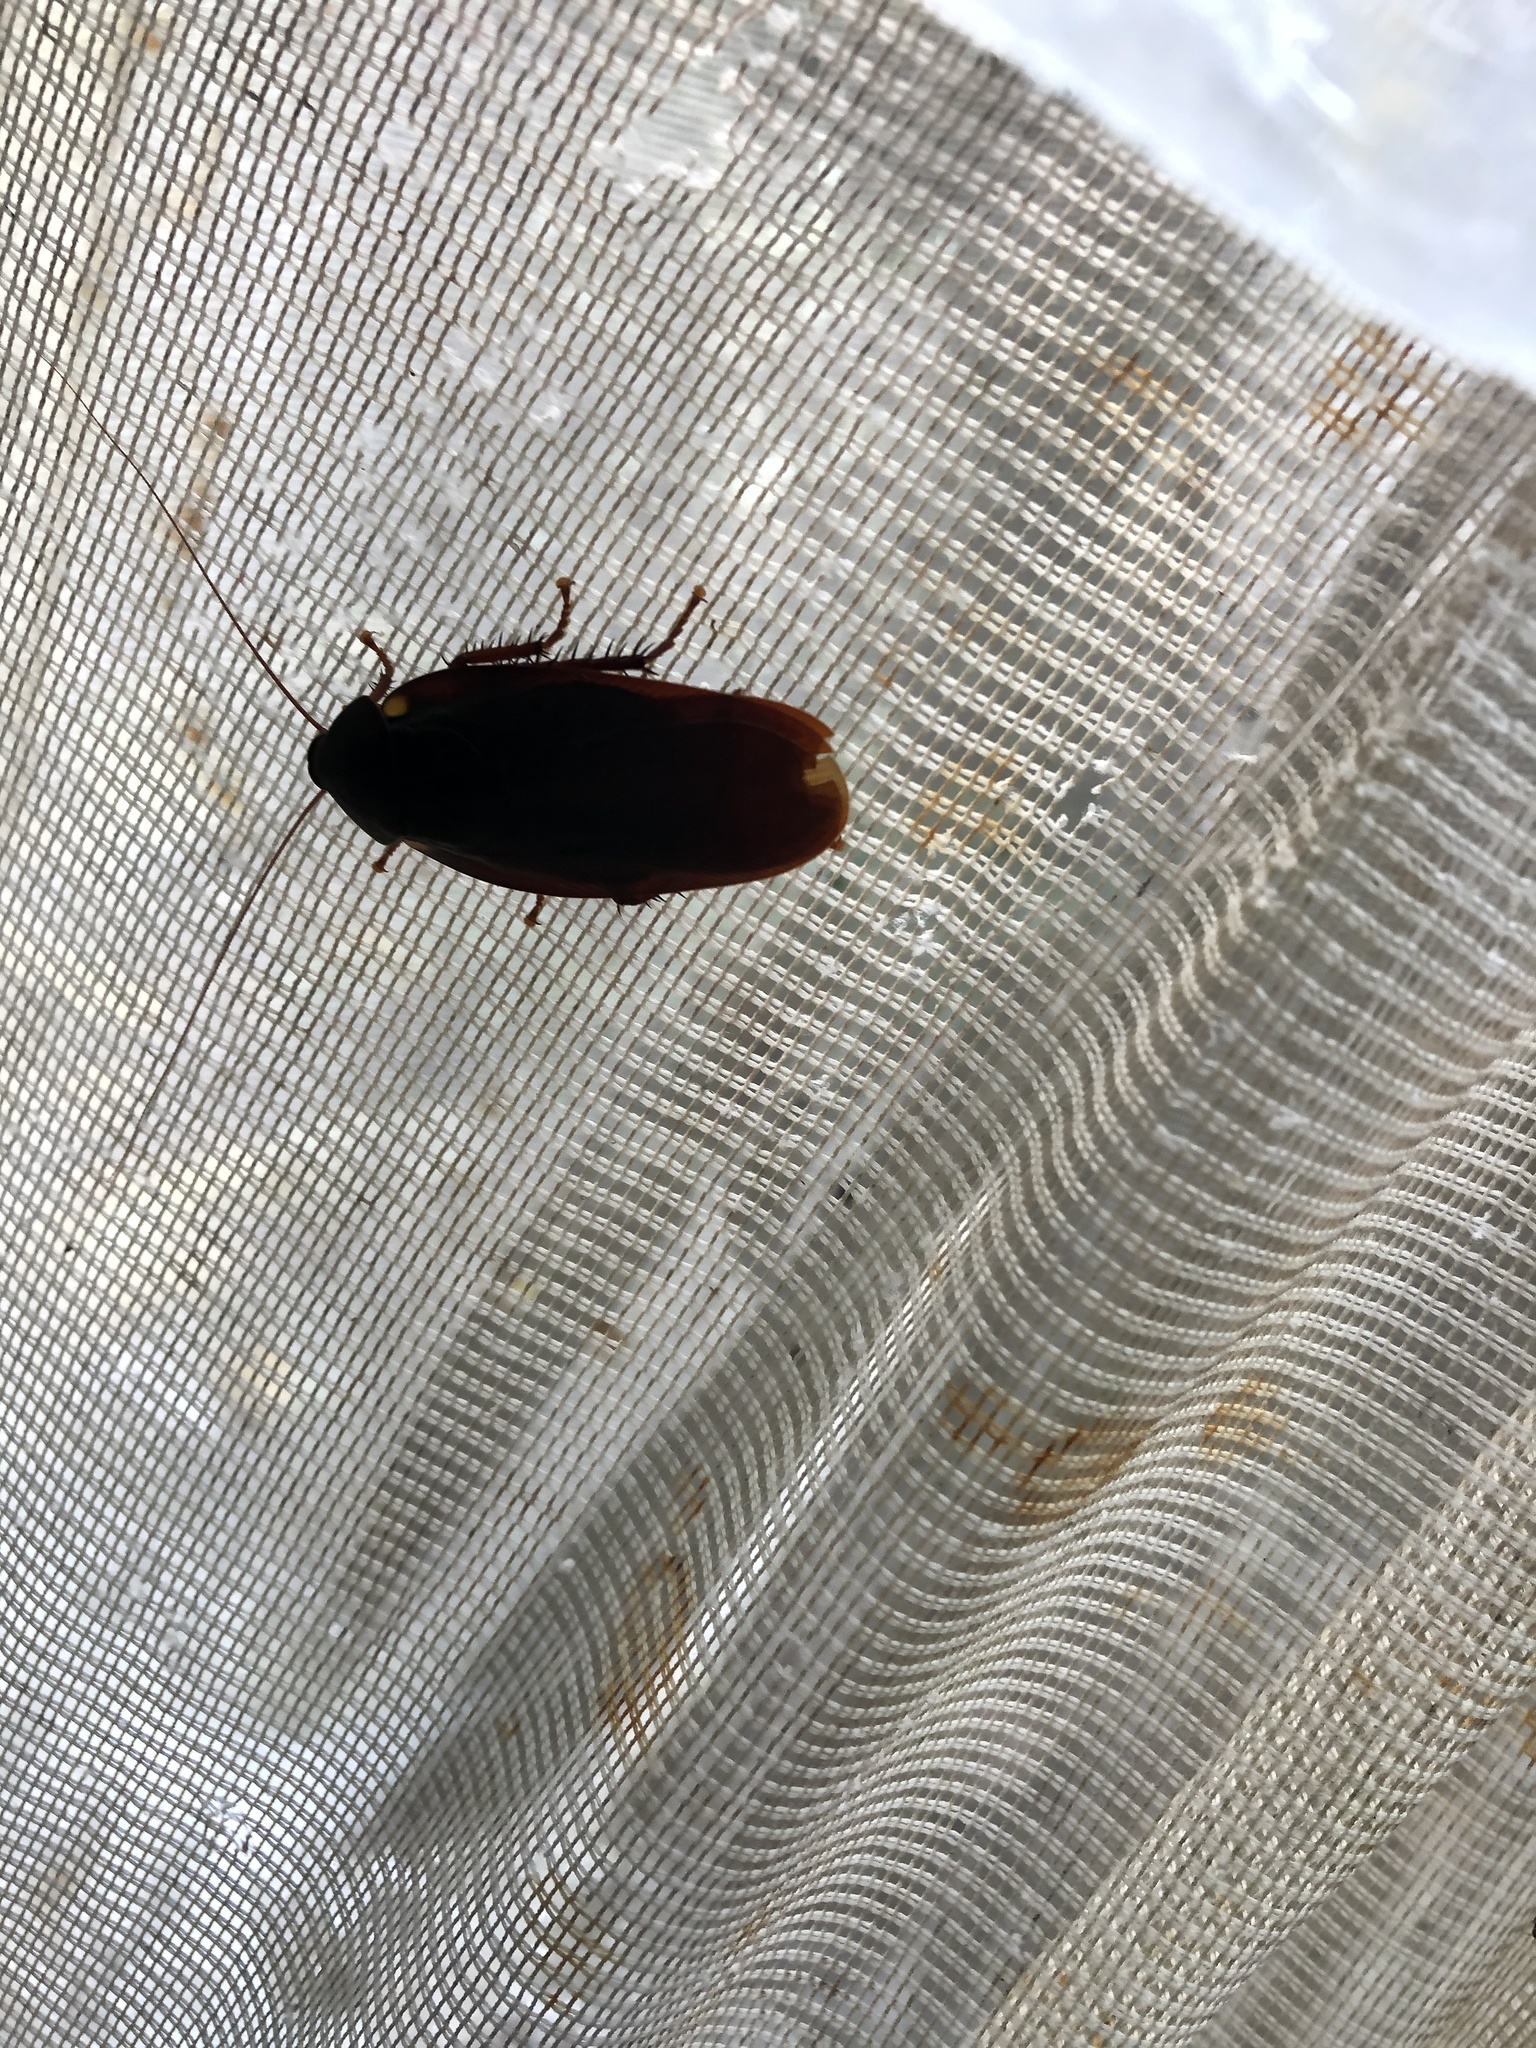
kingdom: Animalia
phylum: Arthropoda
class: Insecta
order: Blattodea
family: Ectobiidae
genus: Nyctibora
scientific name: Nyctibora humeralis
